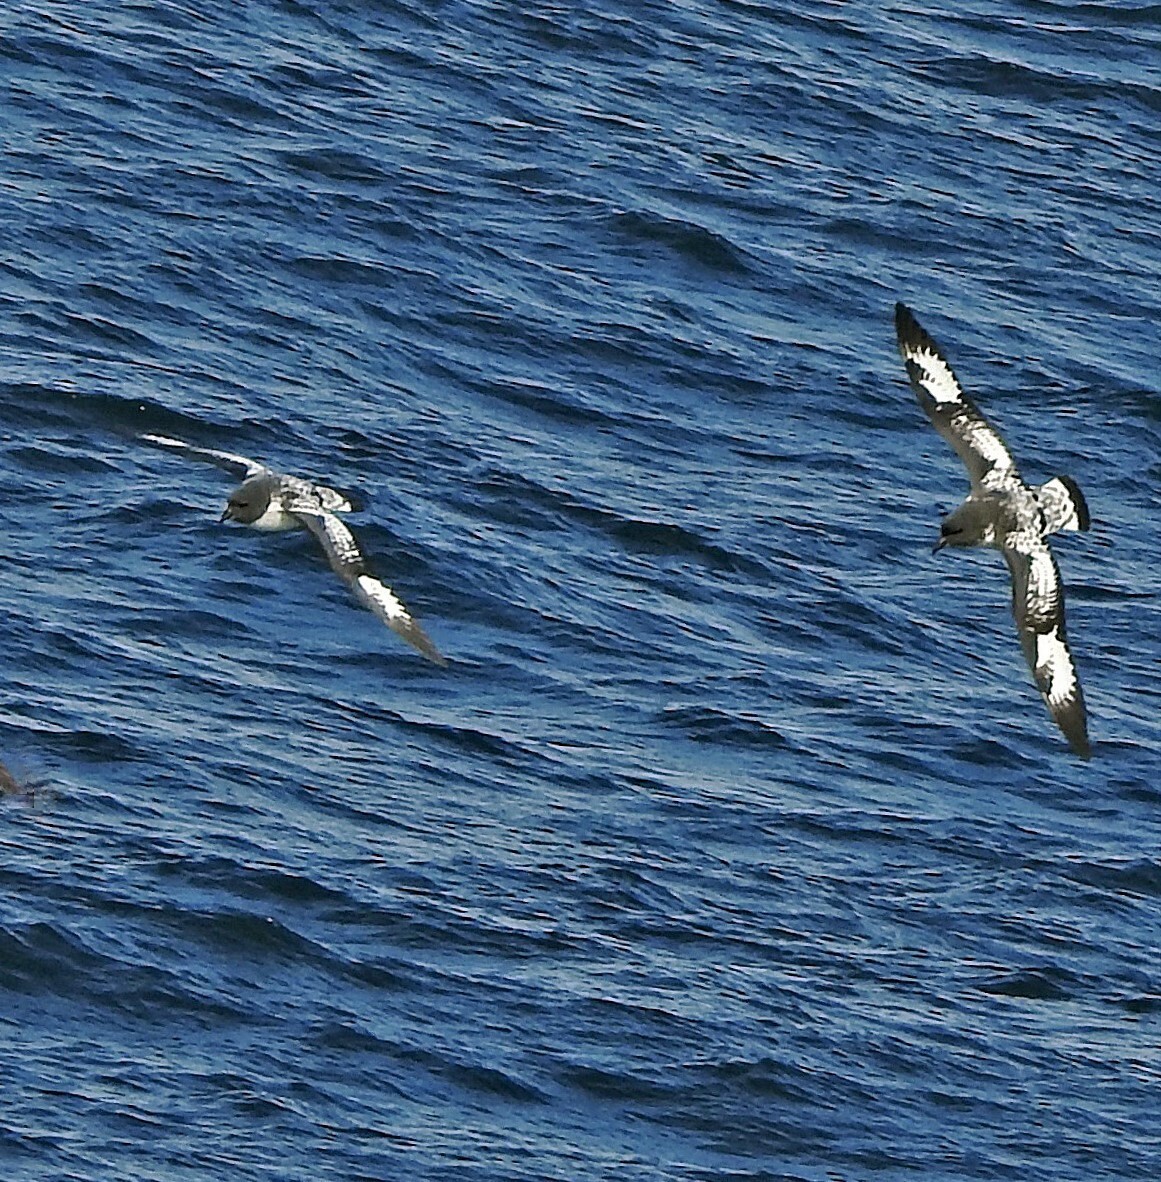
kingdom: Animalia
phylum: Chordata
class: Aves
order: Procellariiformes
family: Procellariidae
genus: Daption
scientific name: Daption capense
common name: Cape petrel
